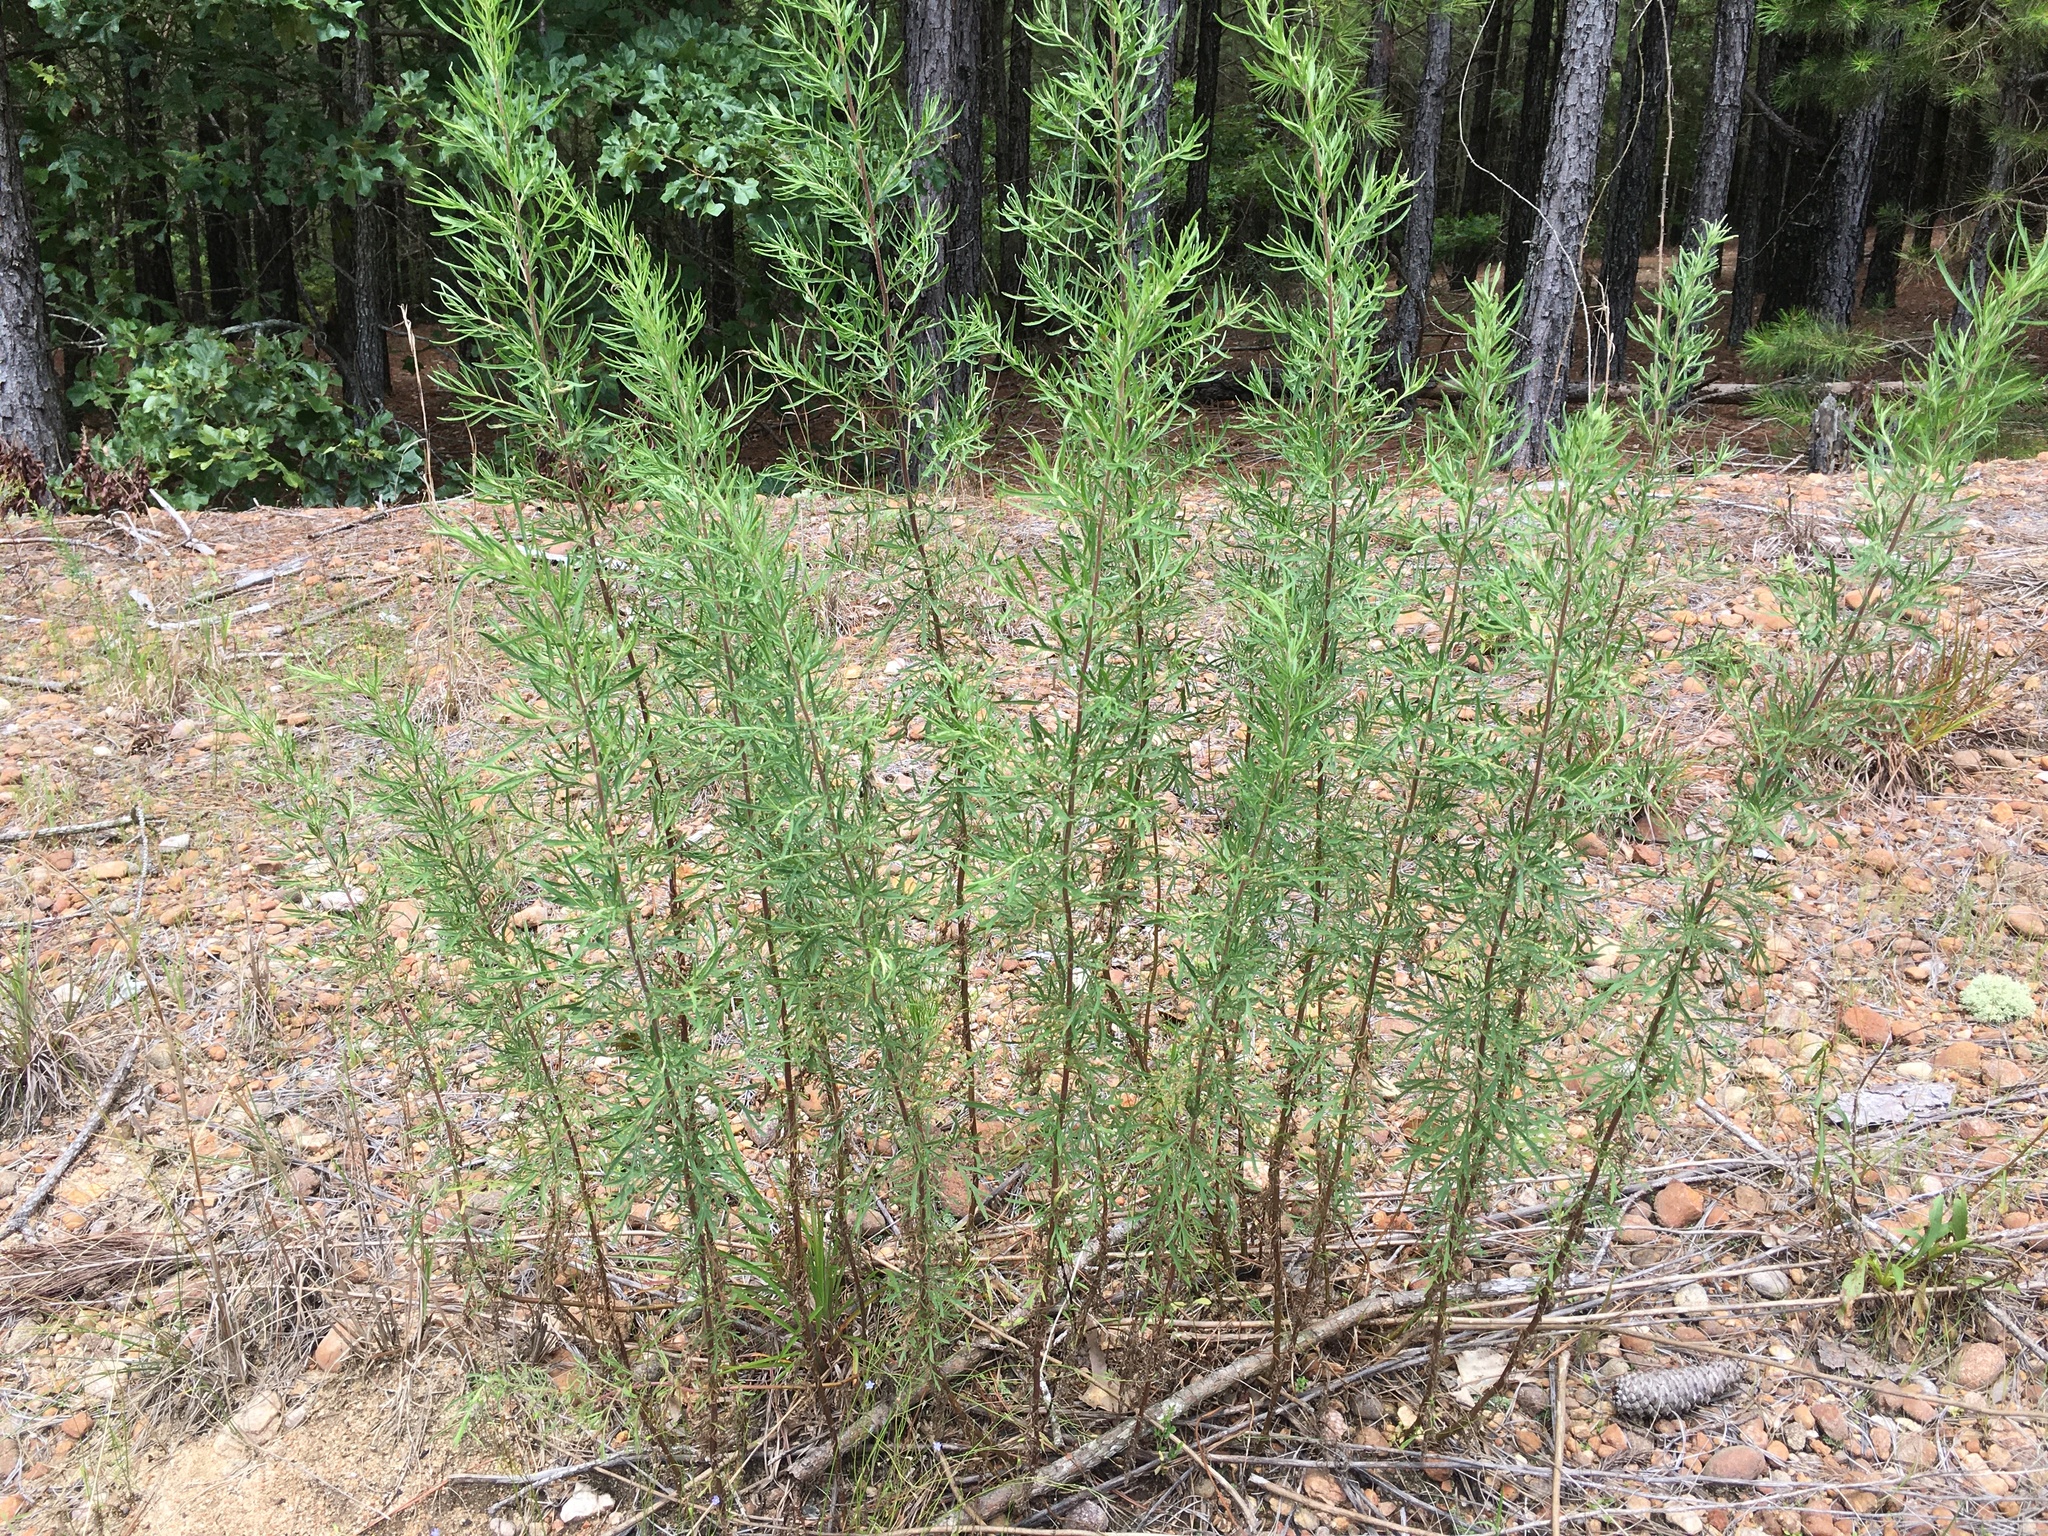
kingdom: Plantae
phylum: Tracheophyta
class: Magnoliopsida
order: Asterales
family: Asteraceae
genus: Eupatorium
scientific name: Eupatorium compositifolium
